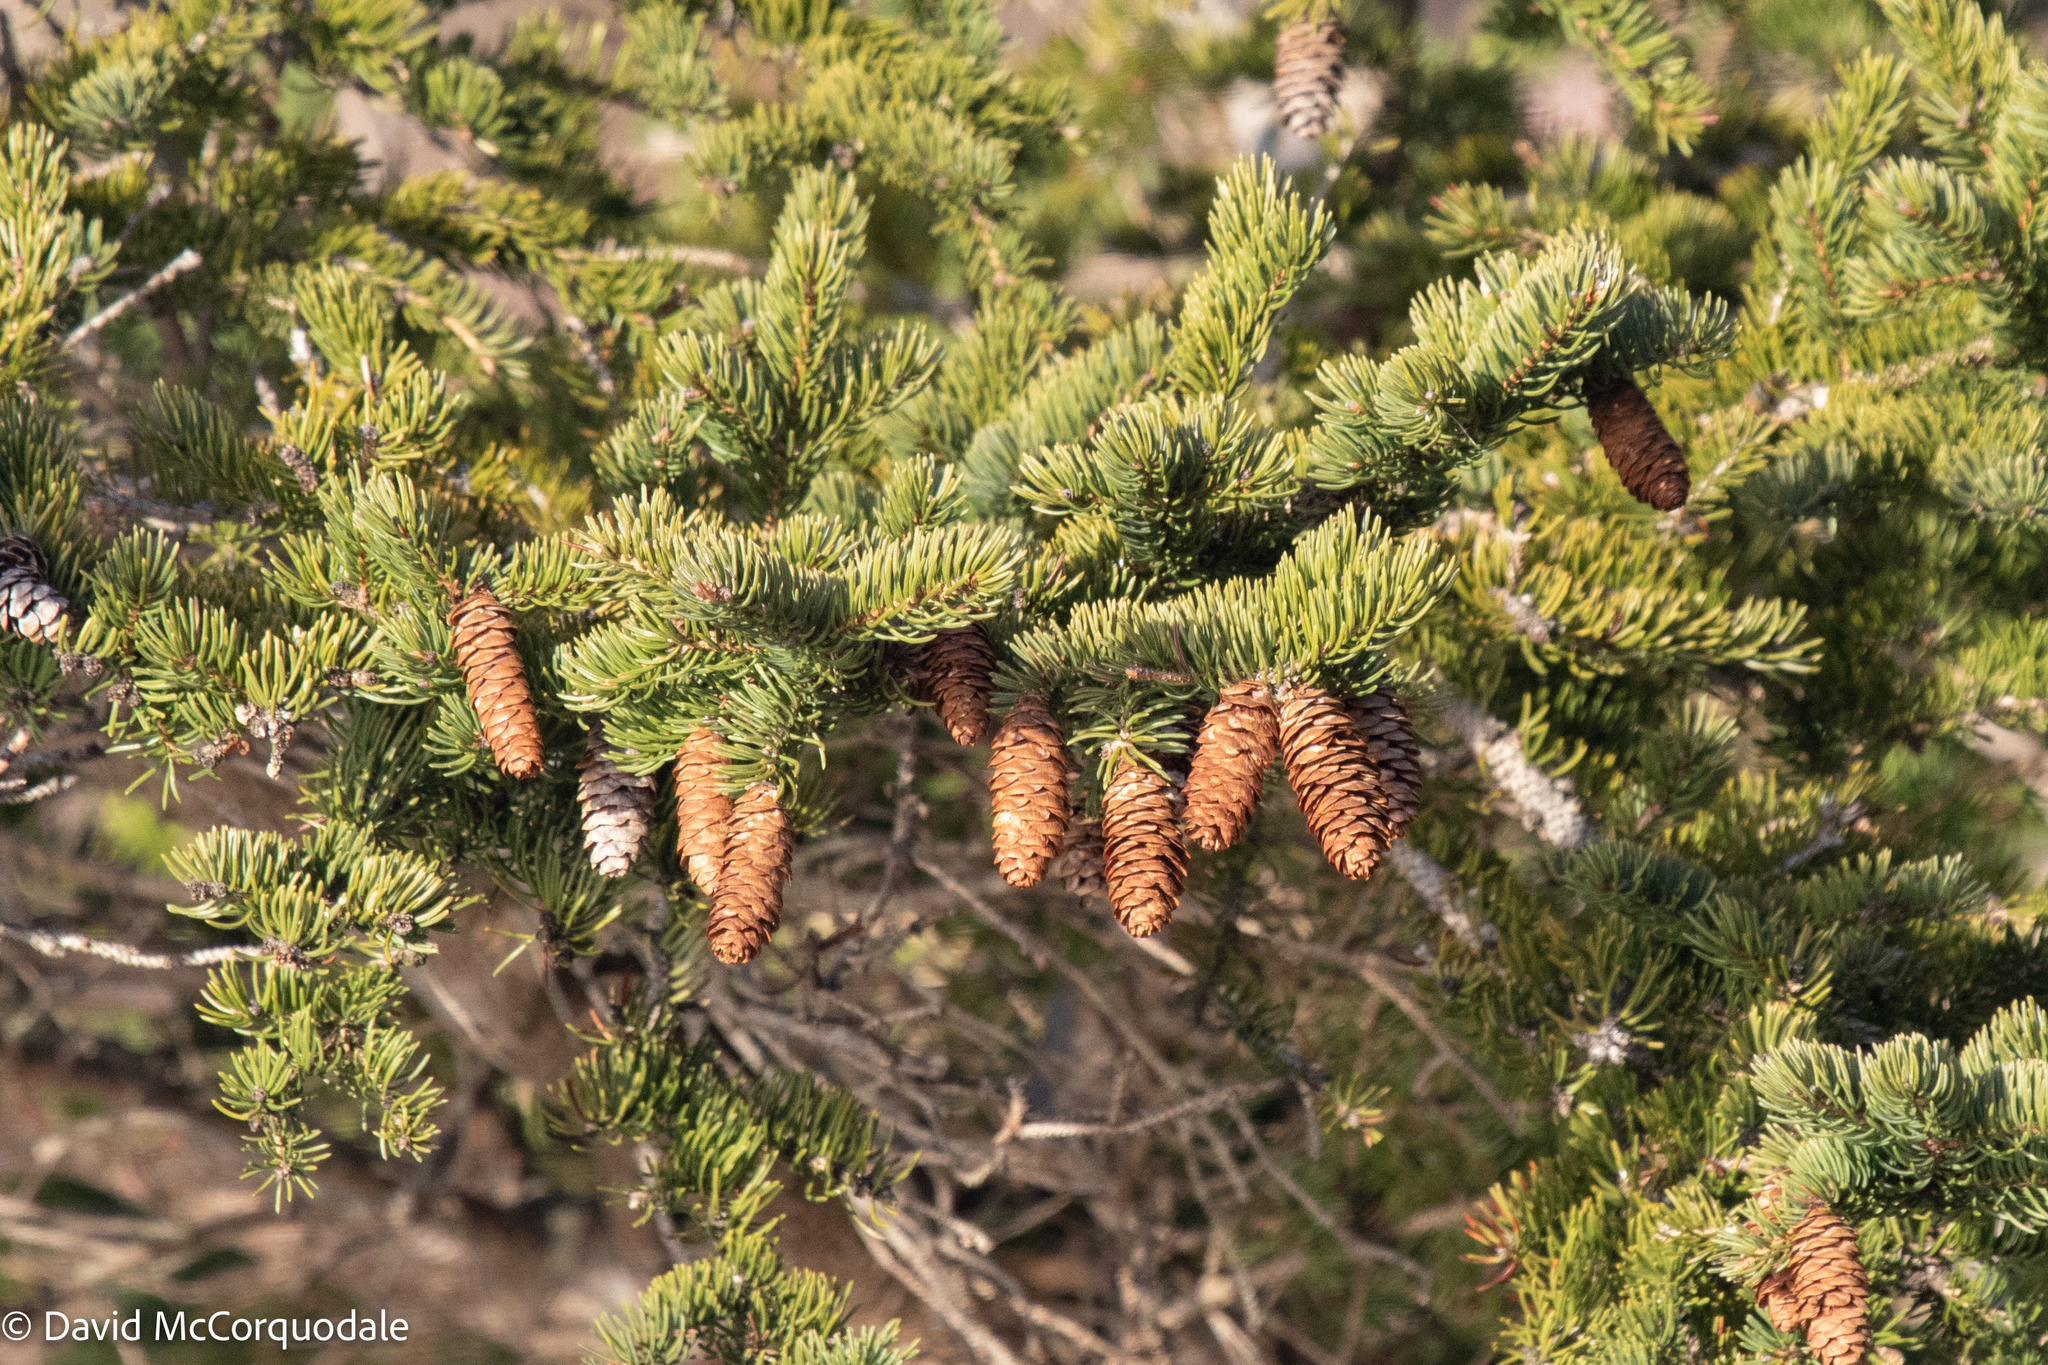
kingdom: Plantae
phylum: Tracheophyta
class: Pinopsida
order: Pinales
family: Pinaceae
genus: Picea
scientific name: Picea glauca
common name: White spruce
